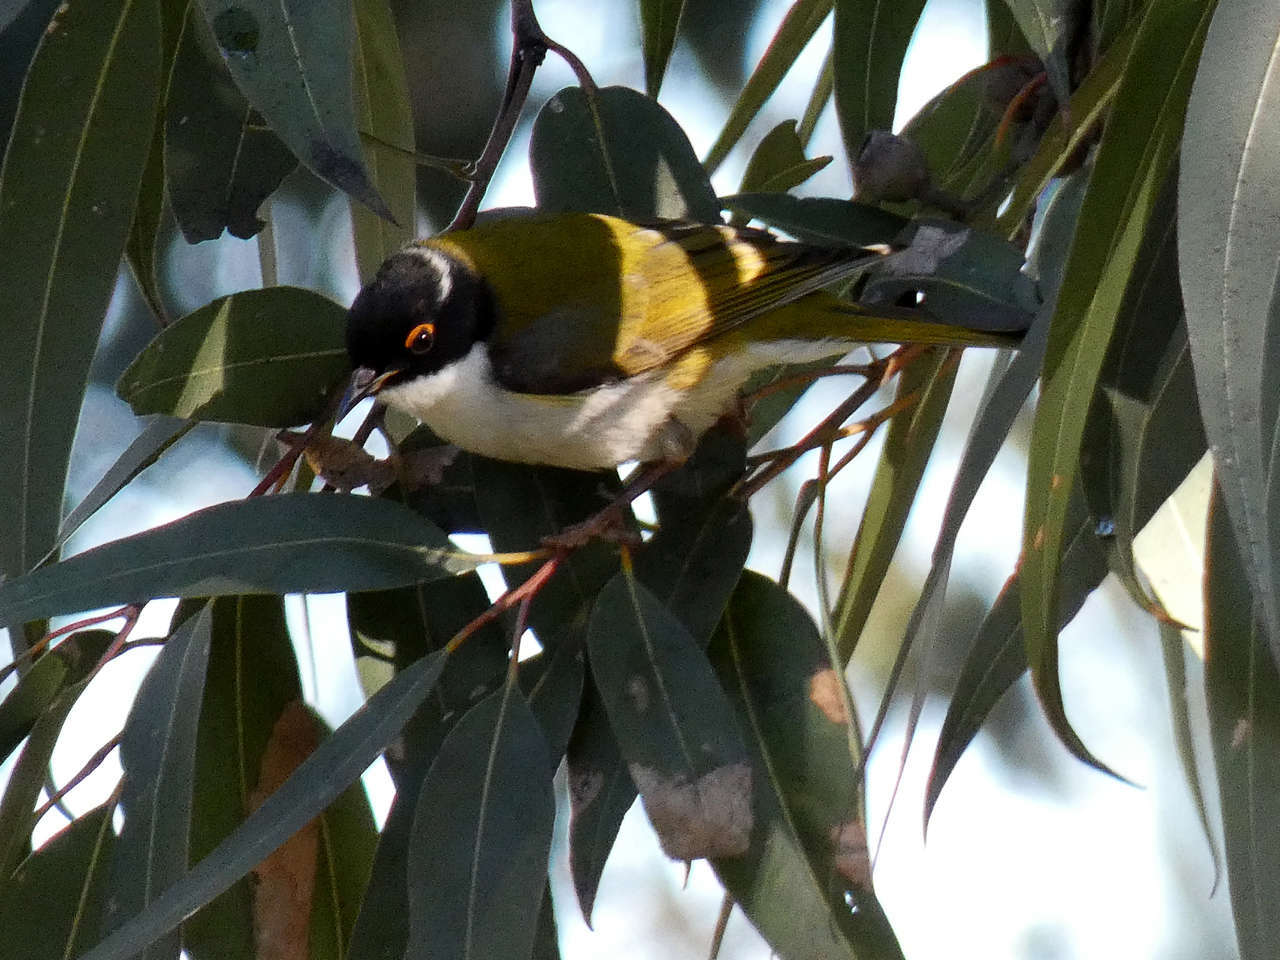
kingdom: Animalia
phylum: Chordata
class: Aves
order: Passeriformes
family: Meliphagidae
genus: Melithreptus
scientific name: Melithreptus lunatus
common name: White-naped honeyeater
